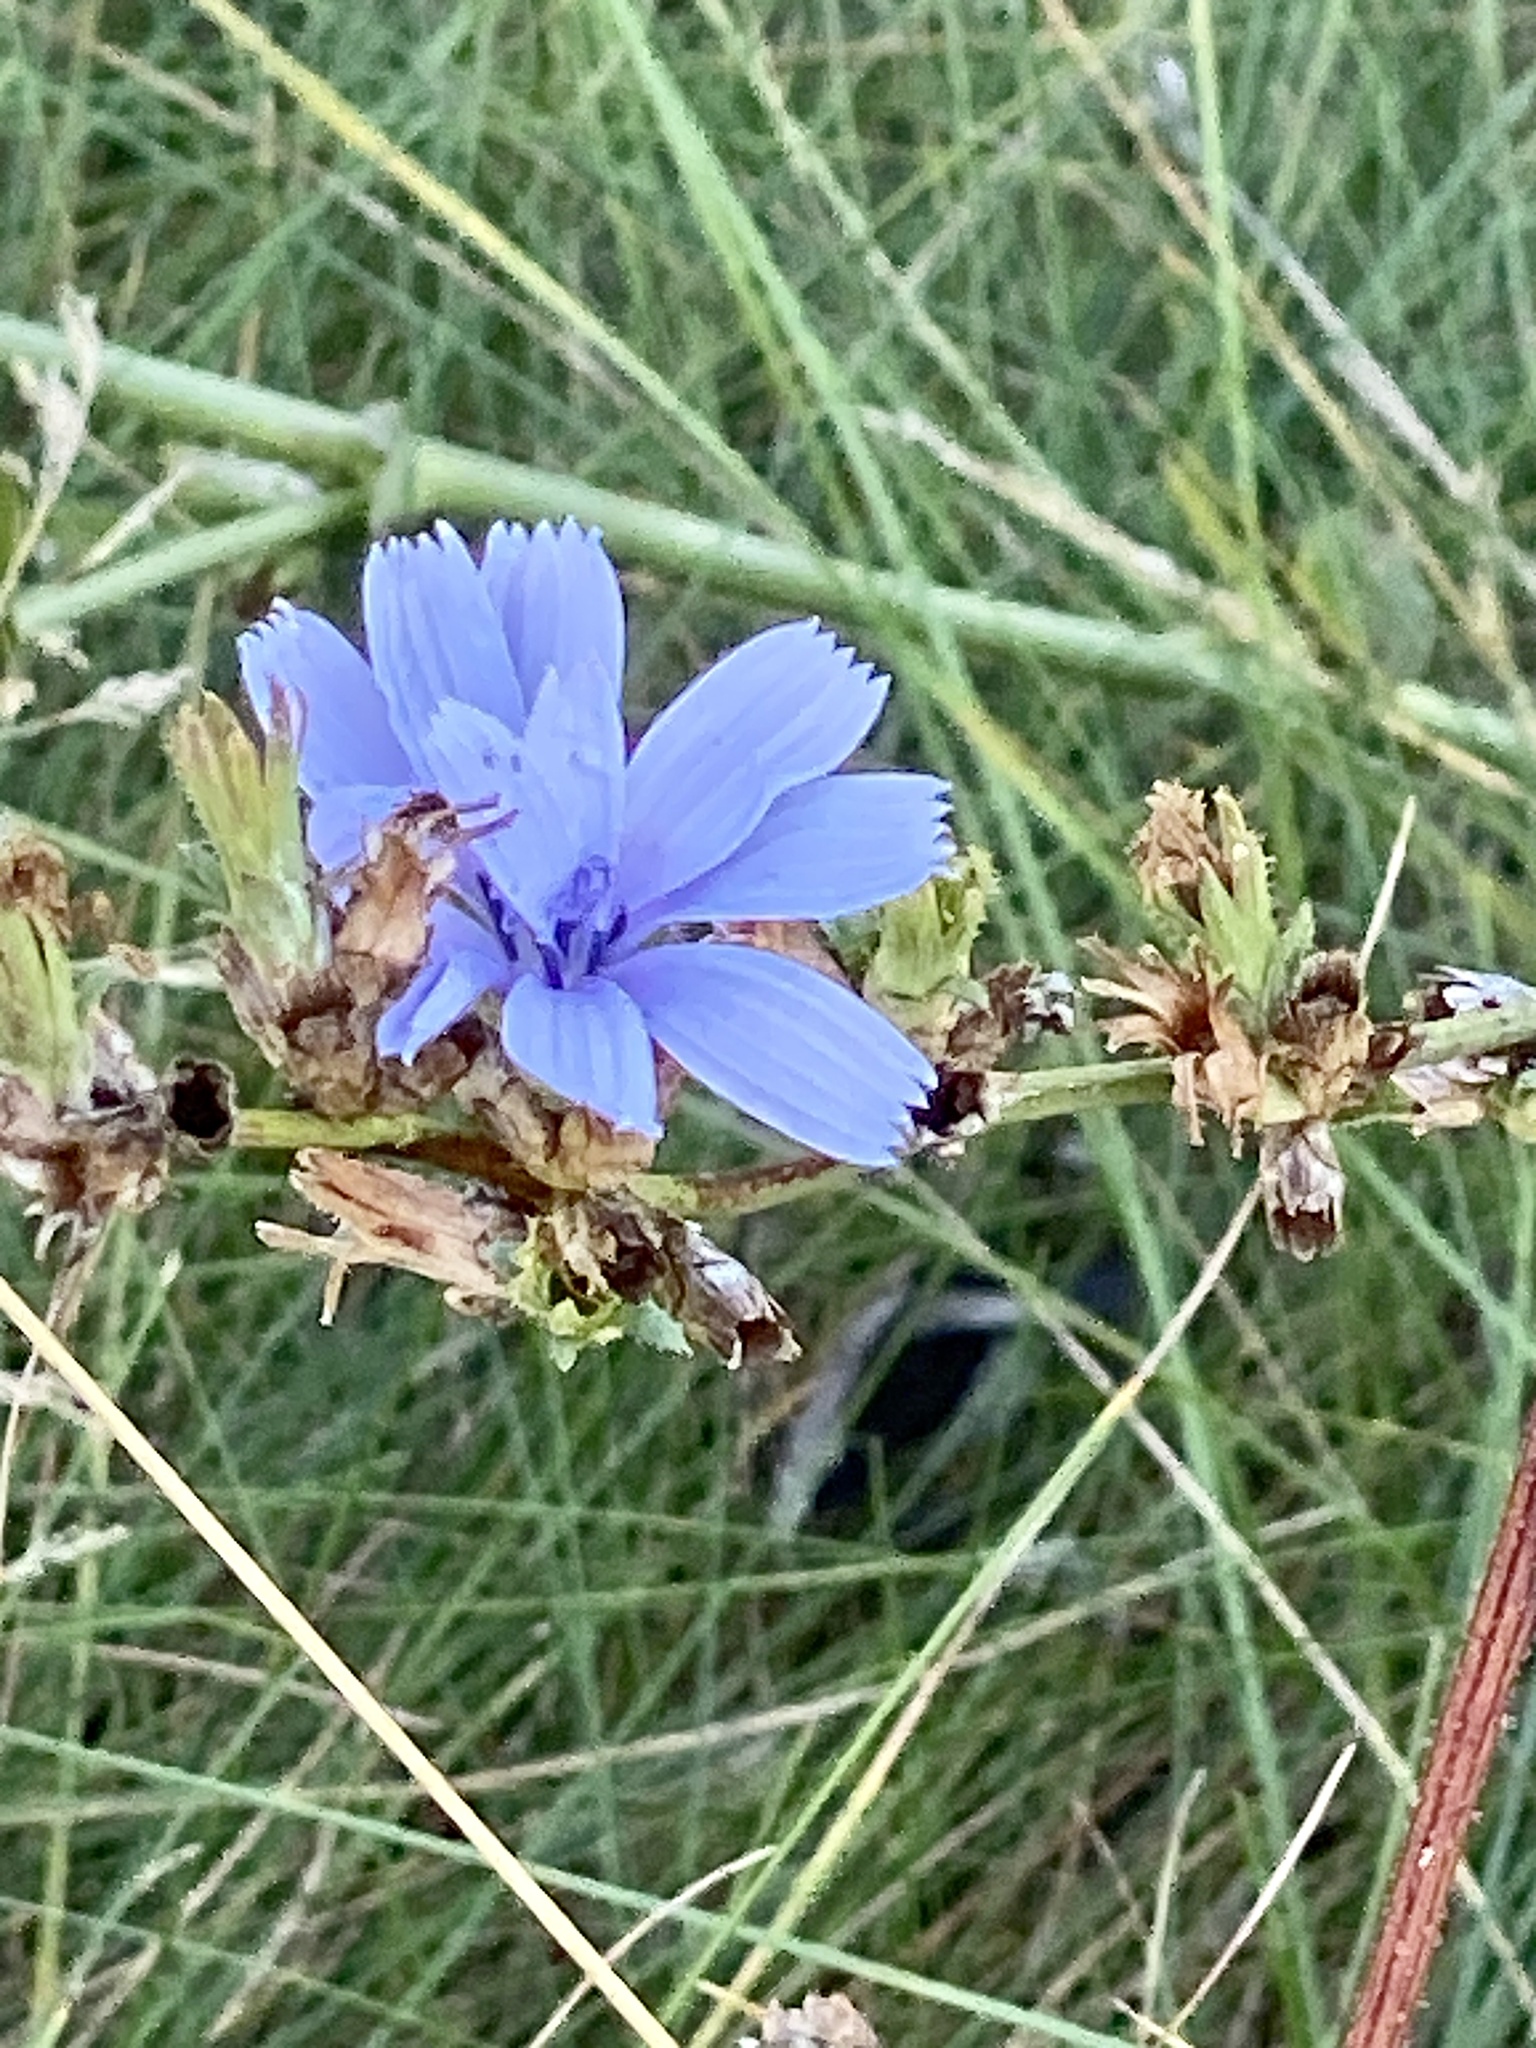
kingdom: Plantae
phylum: Tracheophyta
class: Magnoliopsida
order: Asterales
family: Asteraceae
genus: Cichorium
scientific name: Cichorium intybus
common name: Chicory
